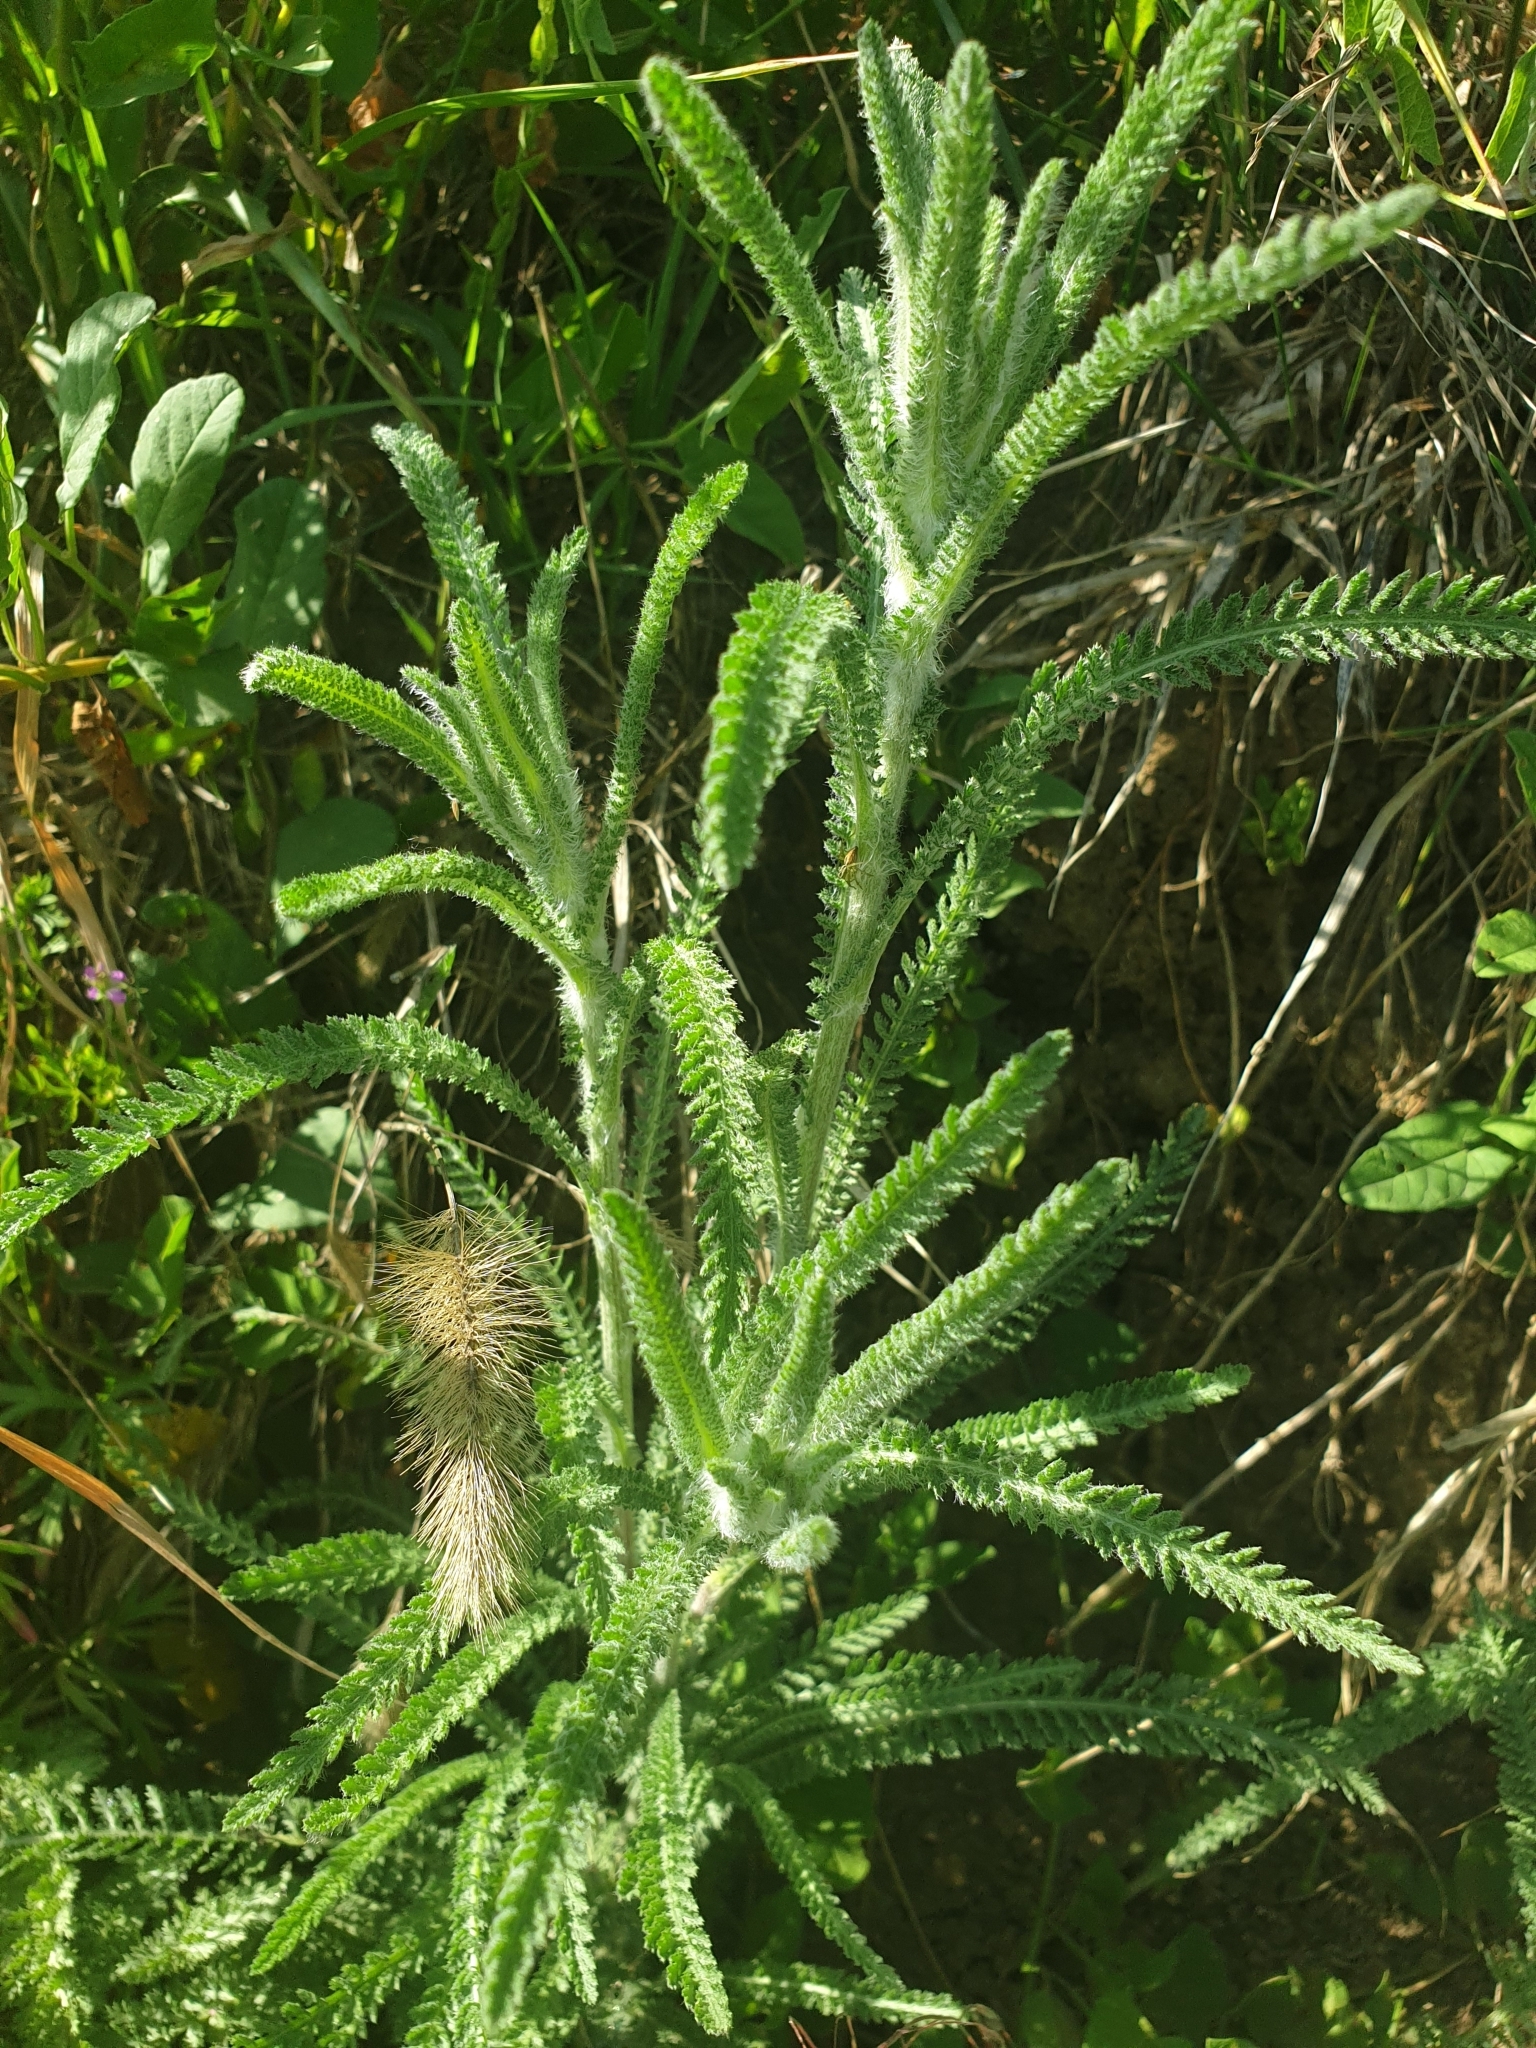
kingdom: Plantae
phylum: Tracheophyta
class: Magnoliopsida
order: Asterales
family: Asteraceae
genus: Achillea
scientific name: Achillea setacea
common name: Bristly yarrow
